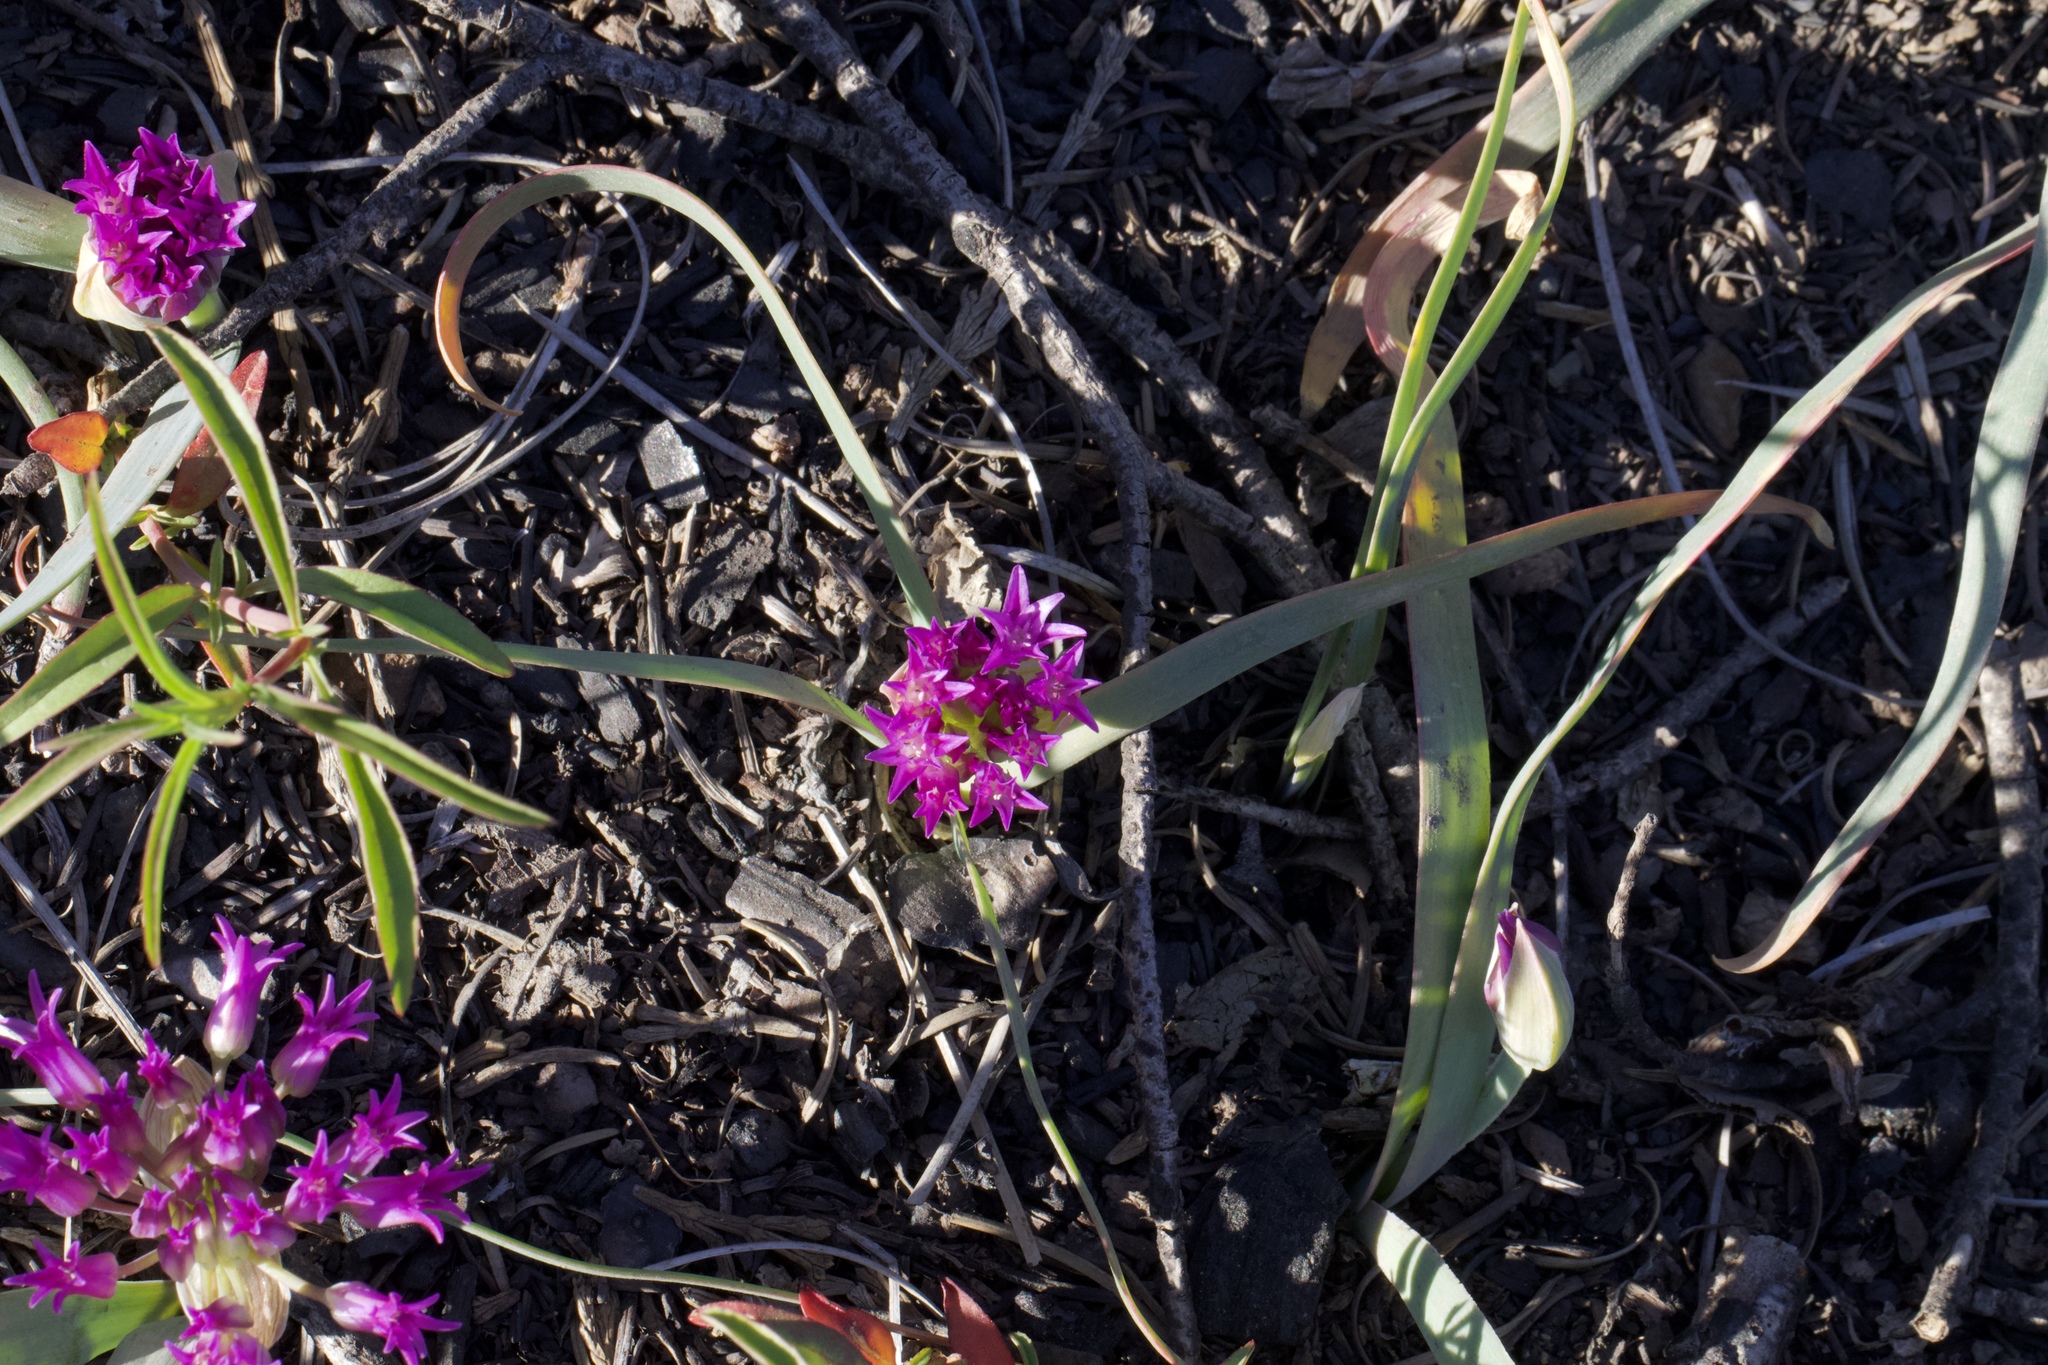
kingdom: Plantae
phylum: Tracheophyta
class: Liliopsida
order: Asparagales
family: Amaryllidaceae
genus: Allium
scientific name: Allium falcifolium
